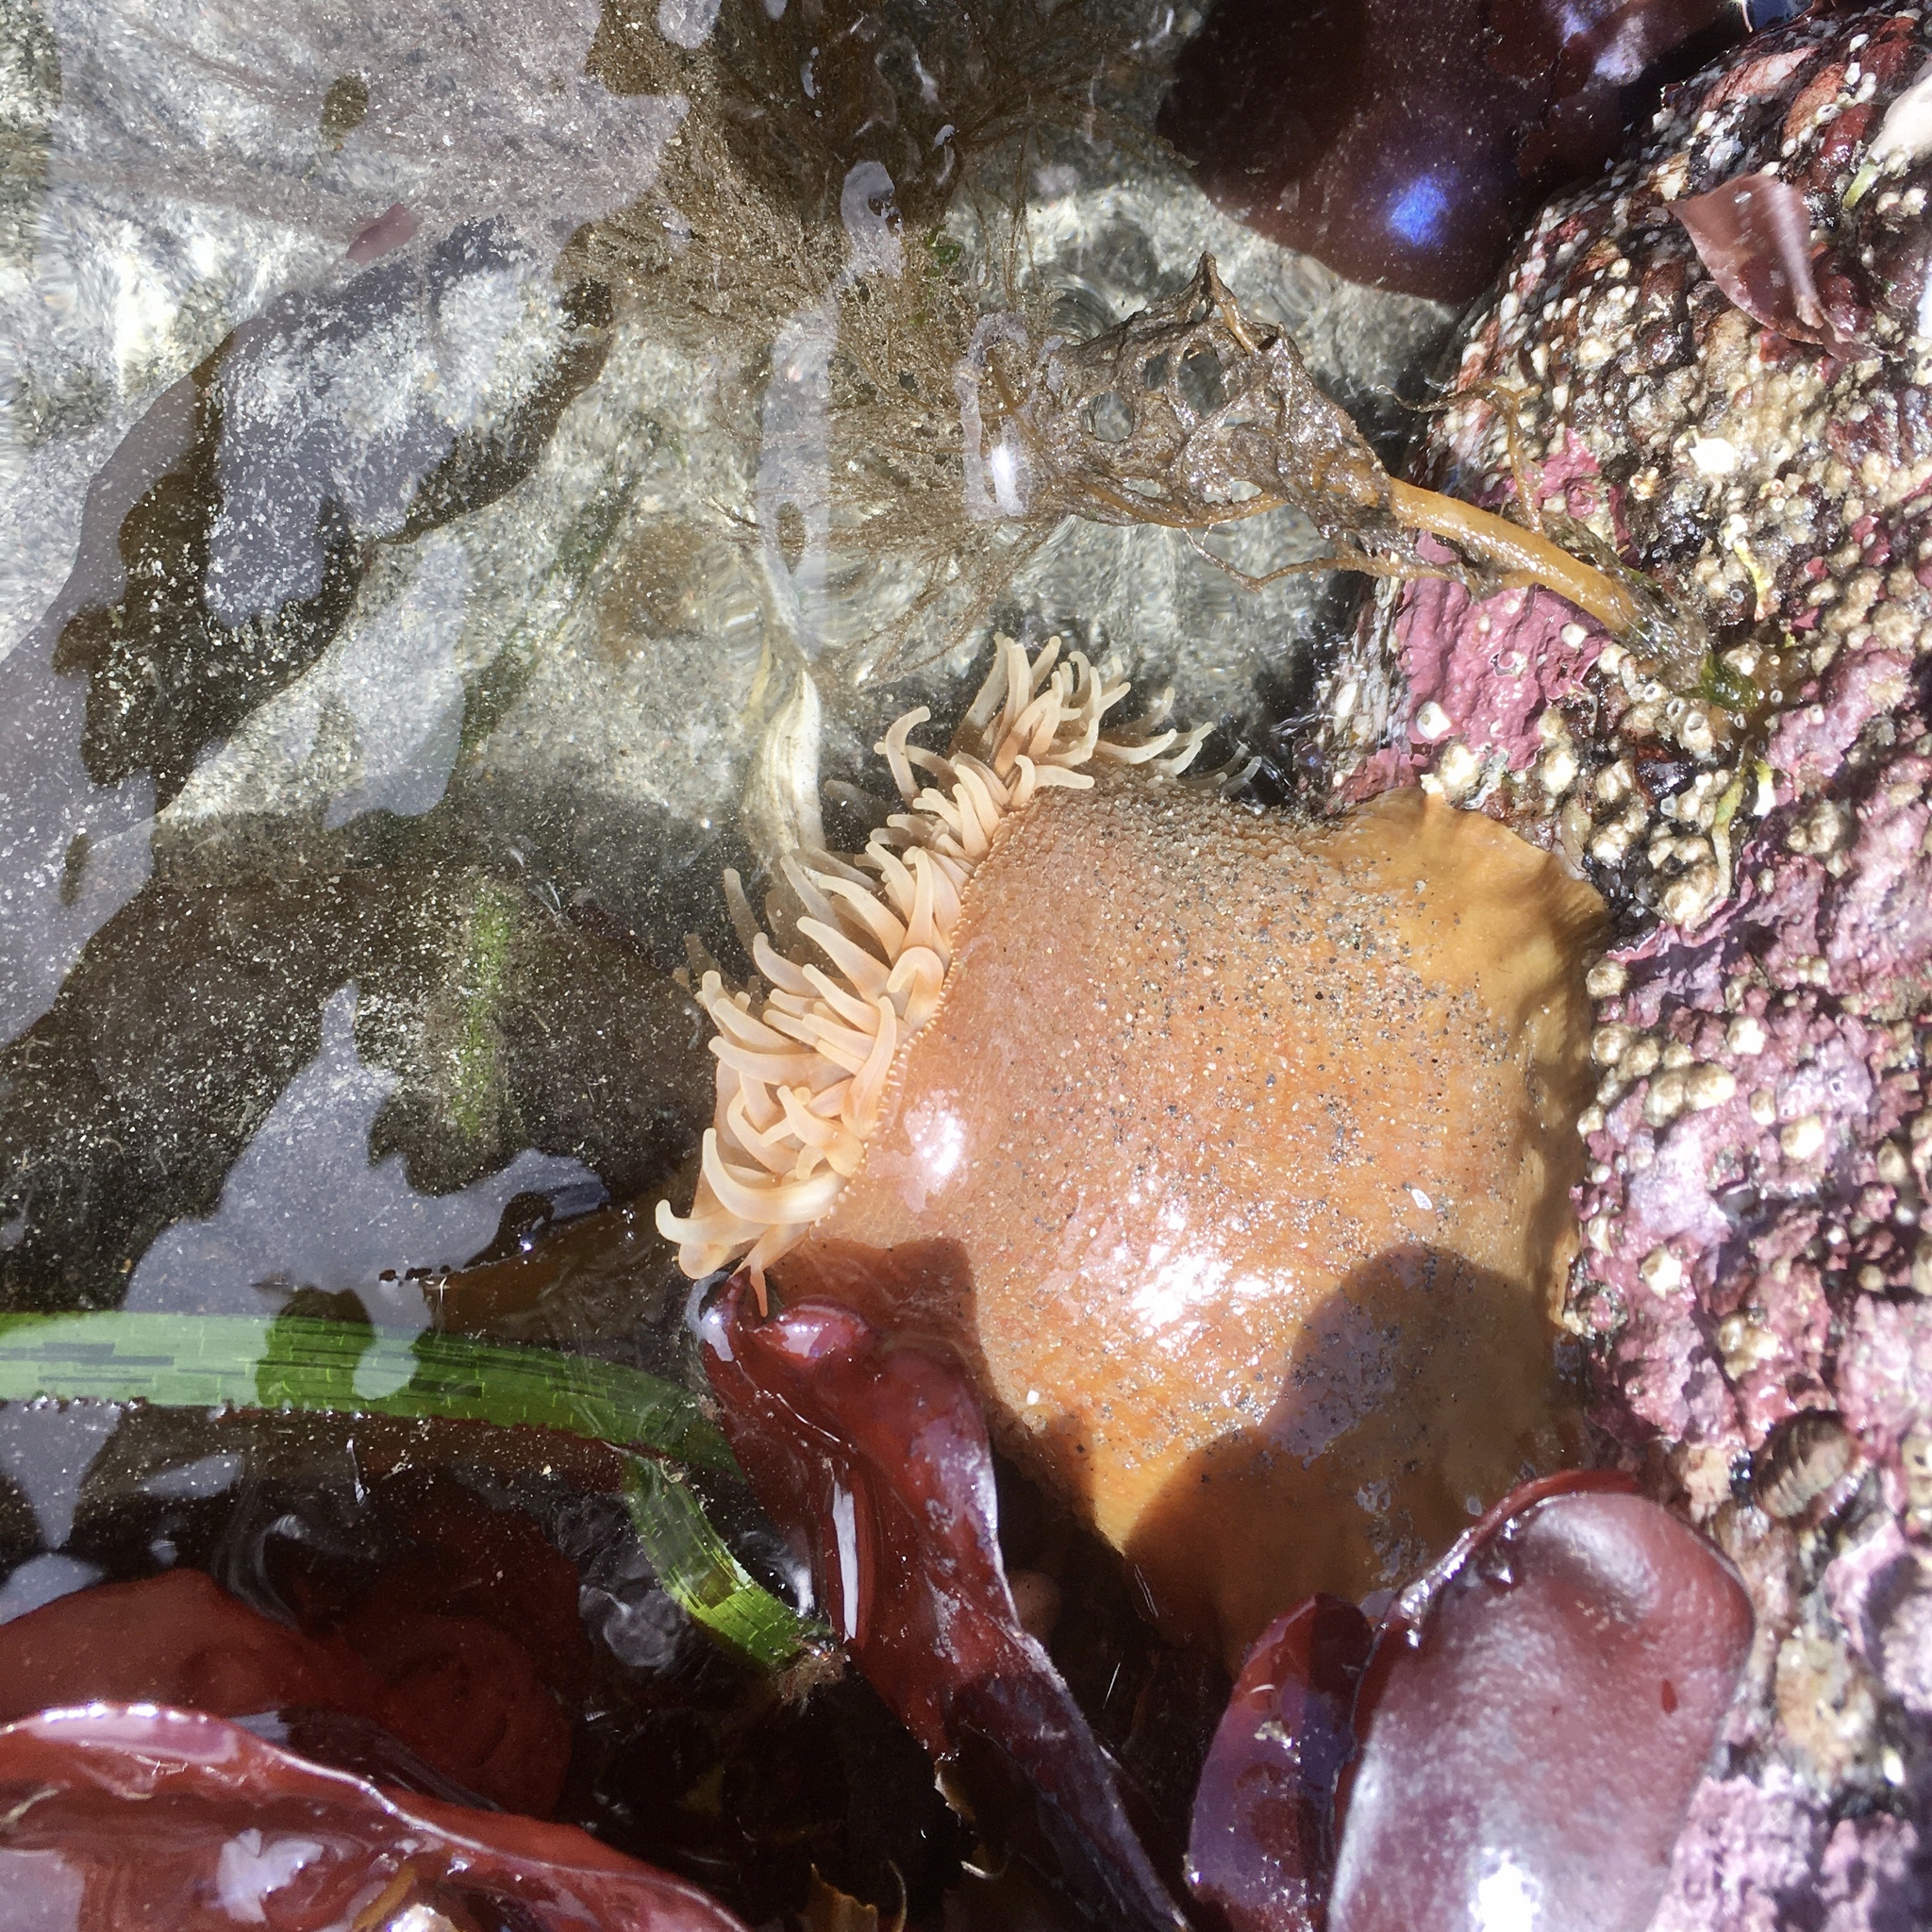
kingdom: Animalia
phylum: Cnidaria
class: Anthozoa
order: Actiniaria
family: Actiniidae
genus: Urticina
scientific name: Urticina grebelnyi
